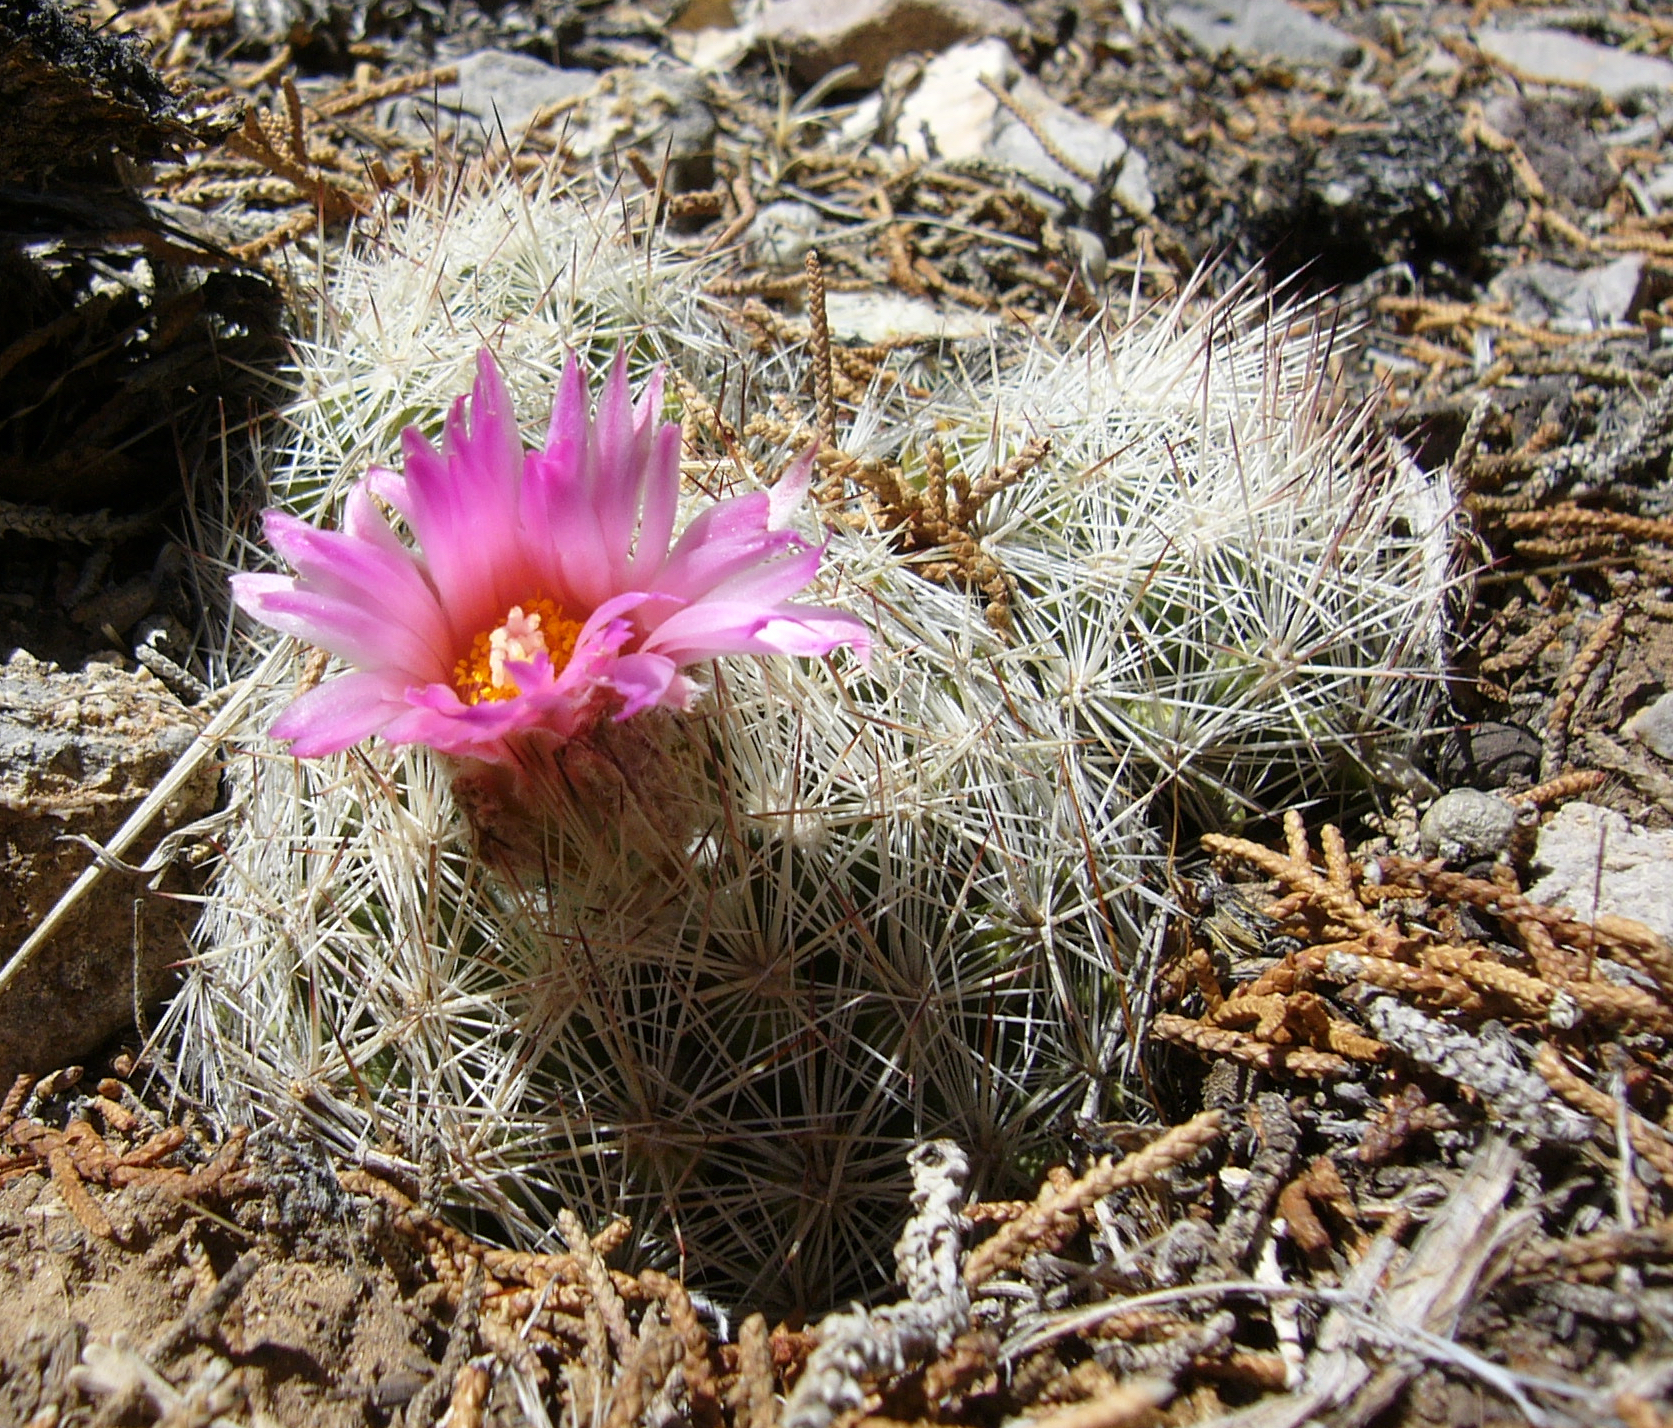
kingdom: Plantae
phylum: Tracheophyta
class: Magnoliopsida
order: Caryophyllales
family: Cactaceae
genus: Pelecyphora
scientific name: Pelecyphora vivipara
